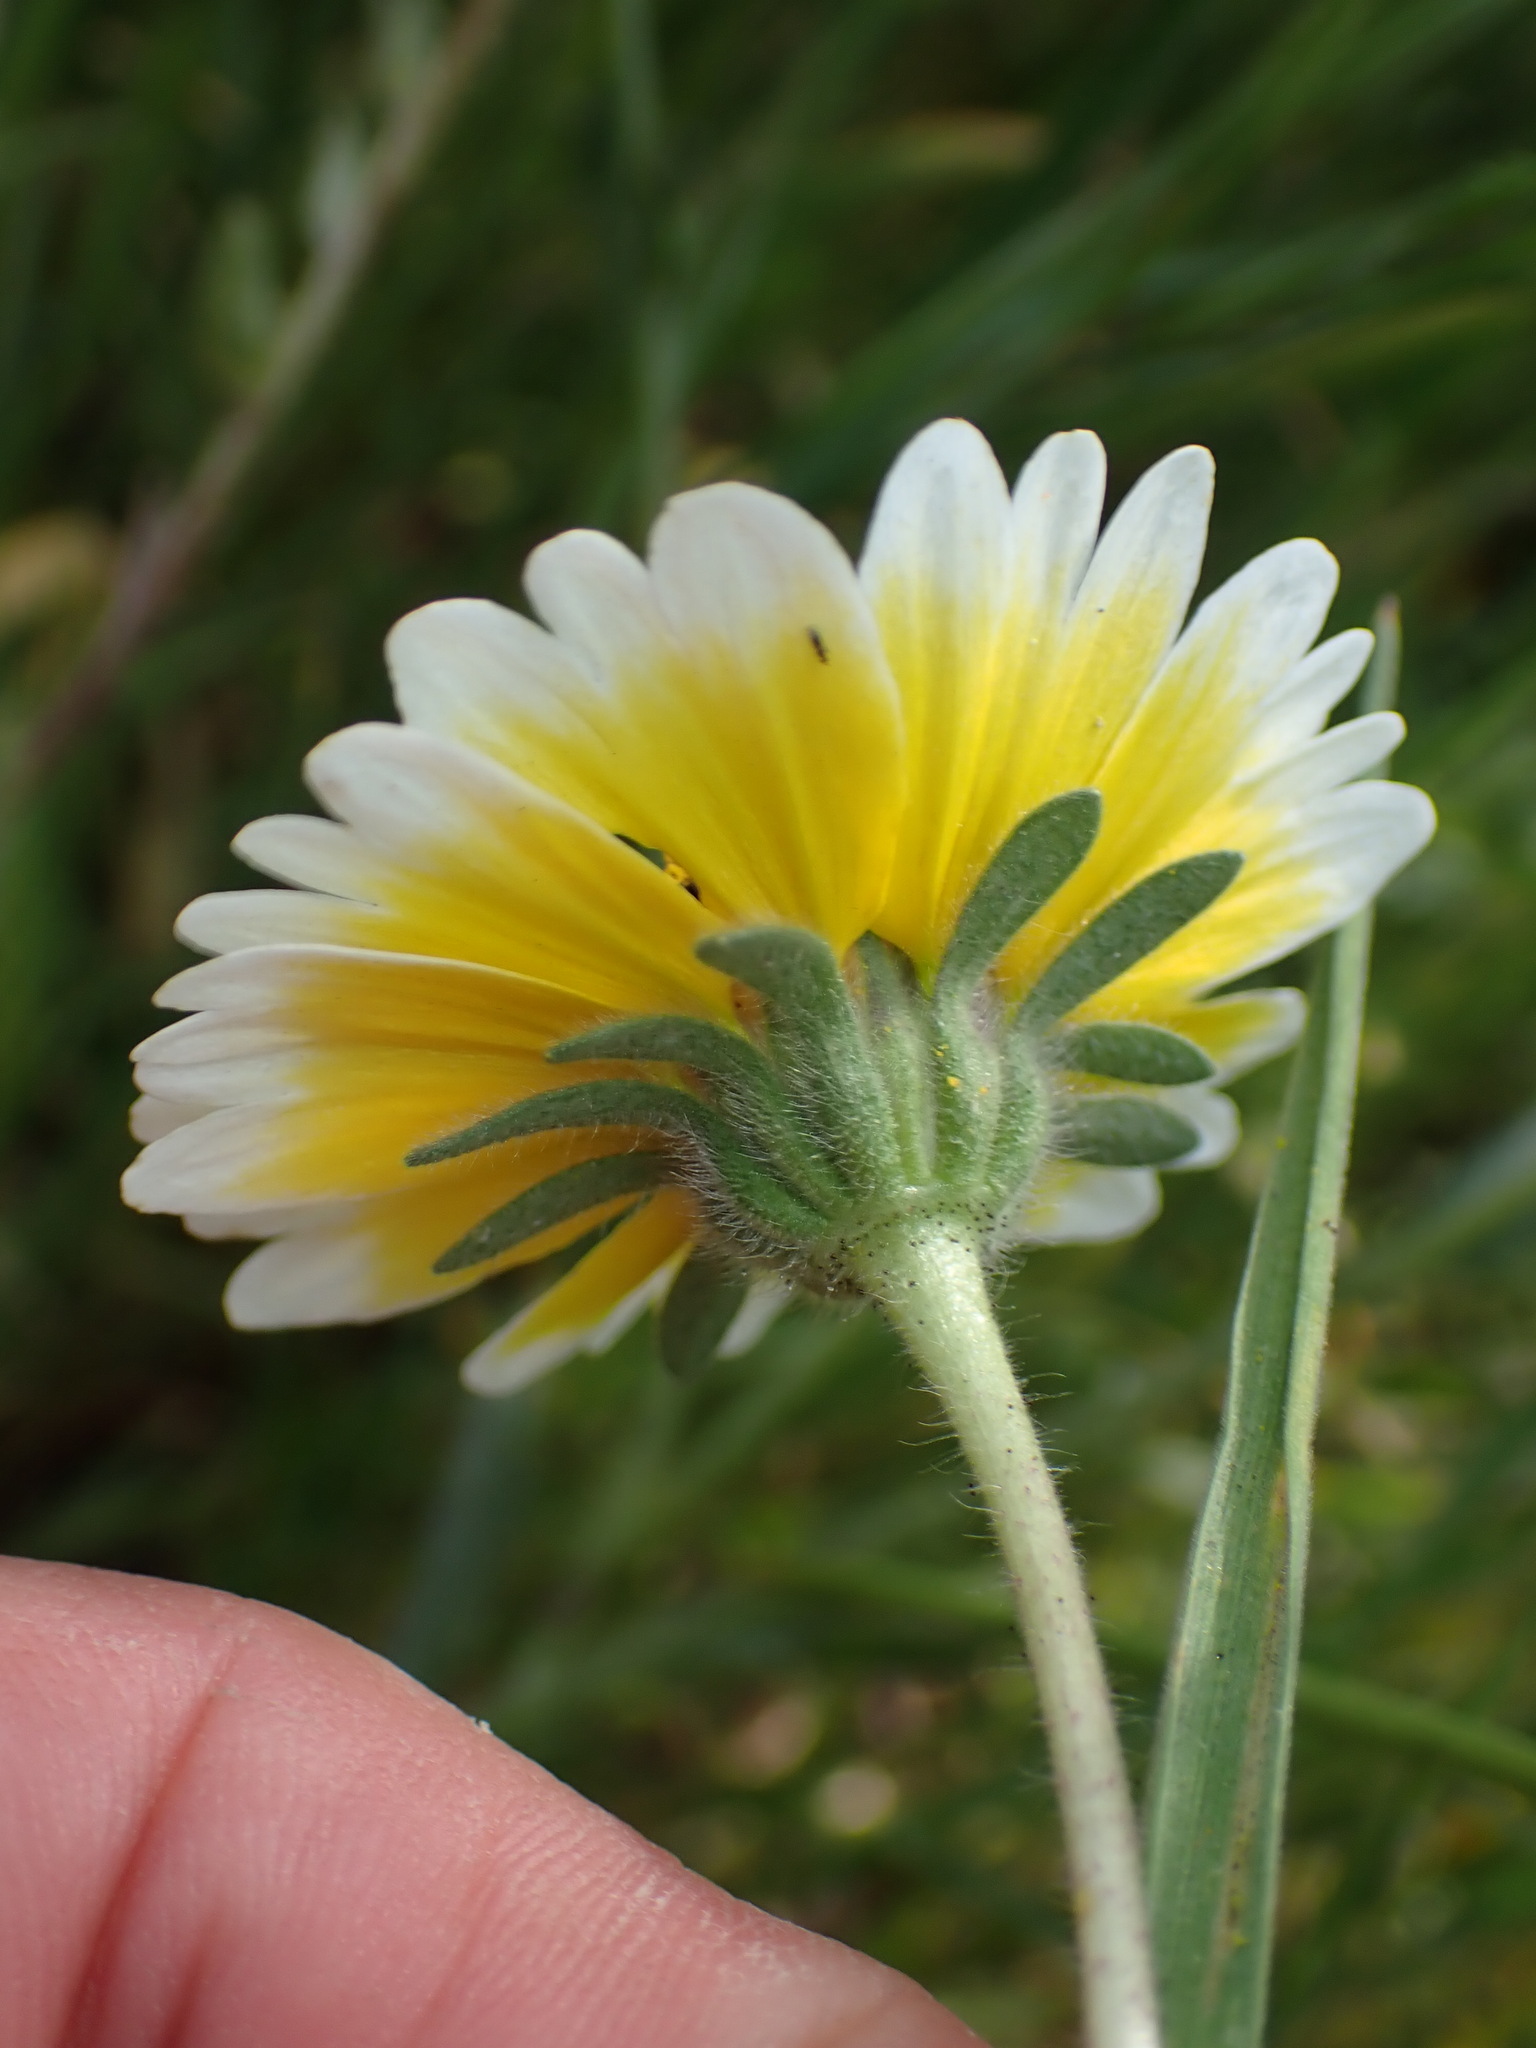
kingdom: Plantae
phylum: Tracheophyta
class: Magnoliopsida
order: Asterales
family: Asteraceae
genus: Layia
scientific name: Layia platyglossa
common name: Tidy-tips
